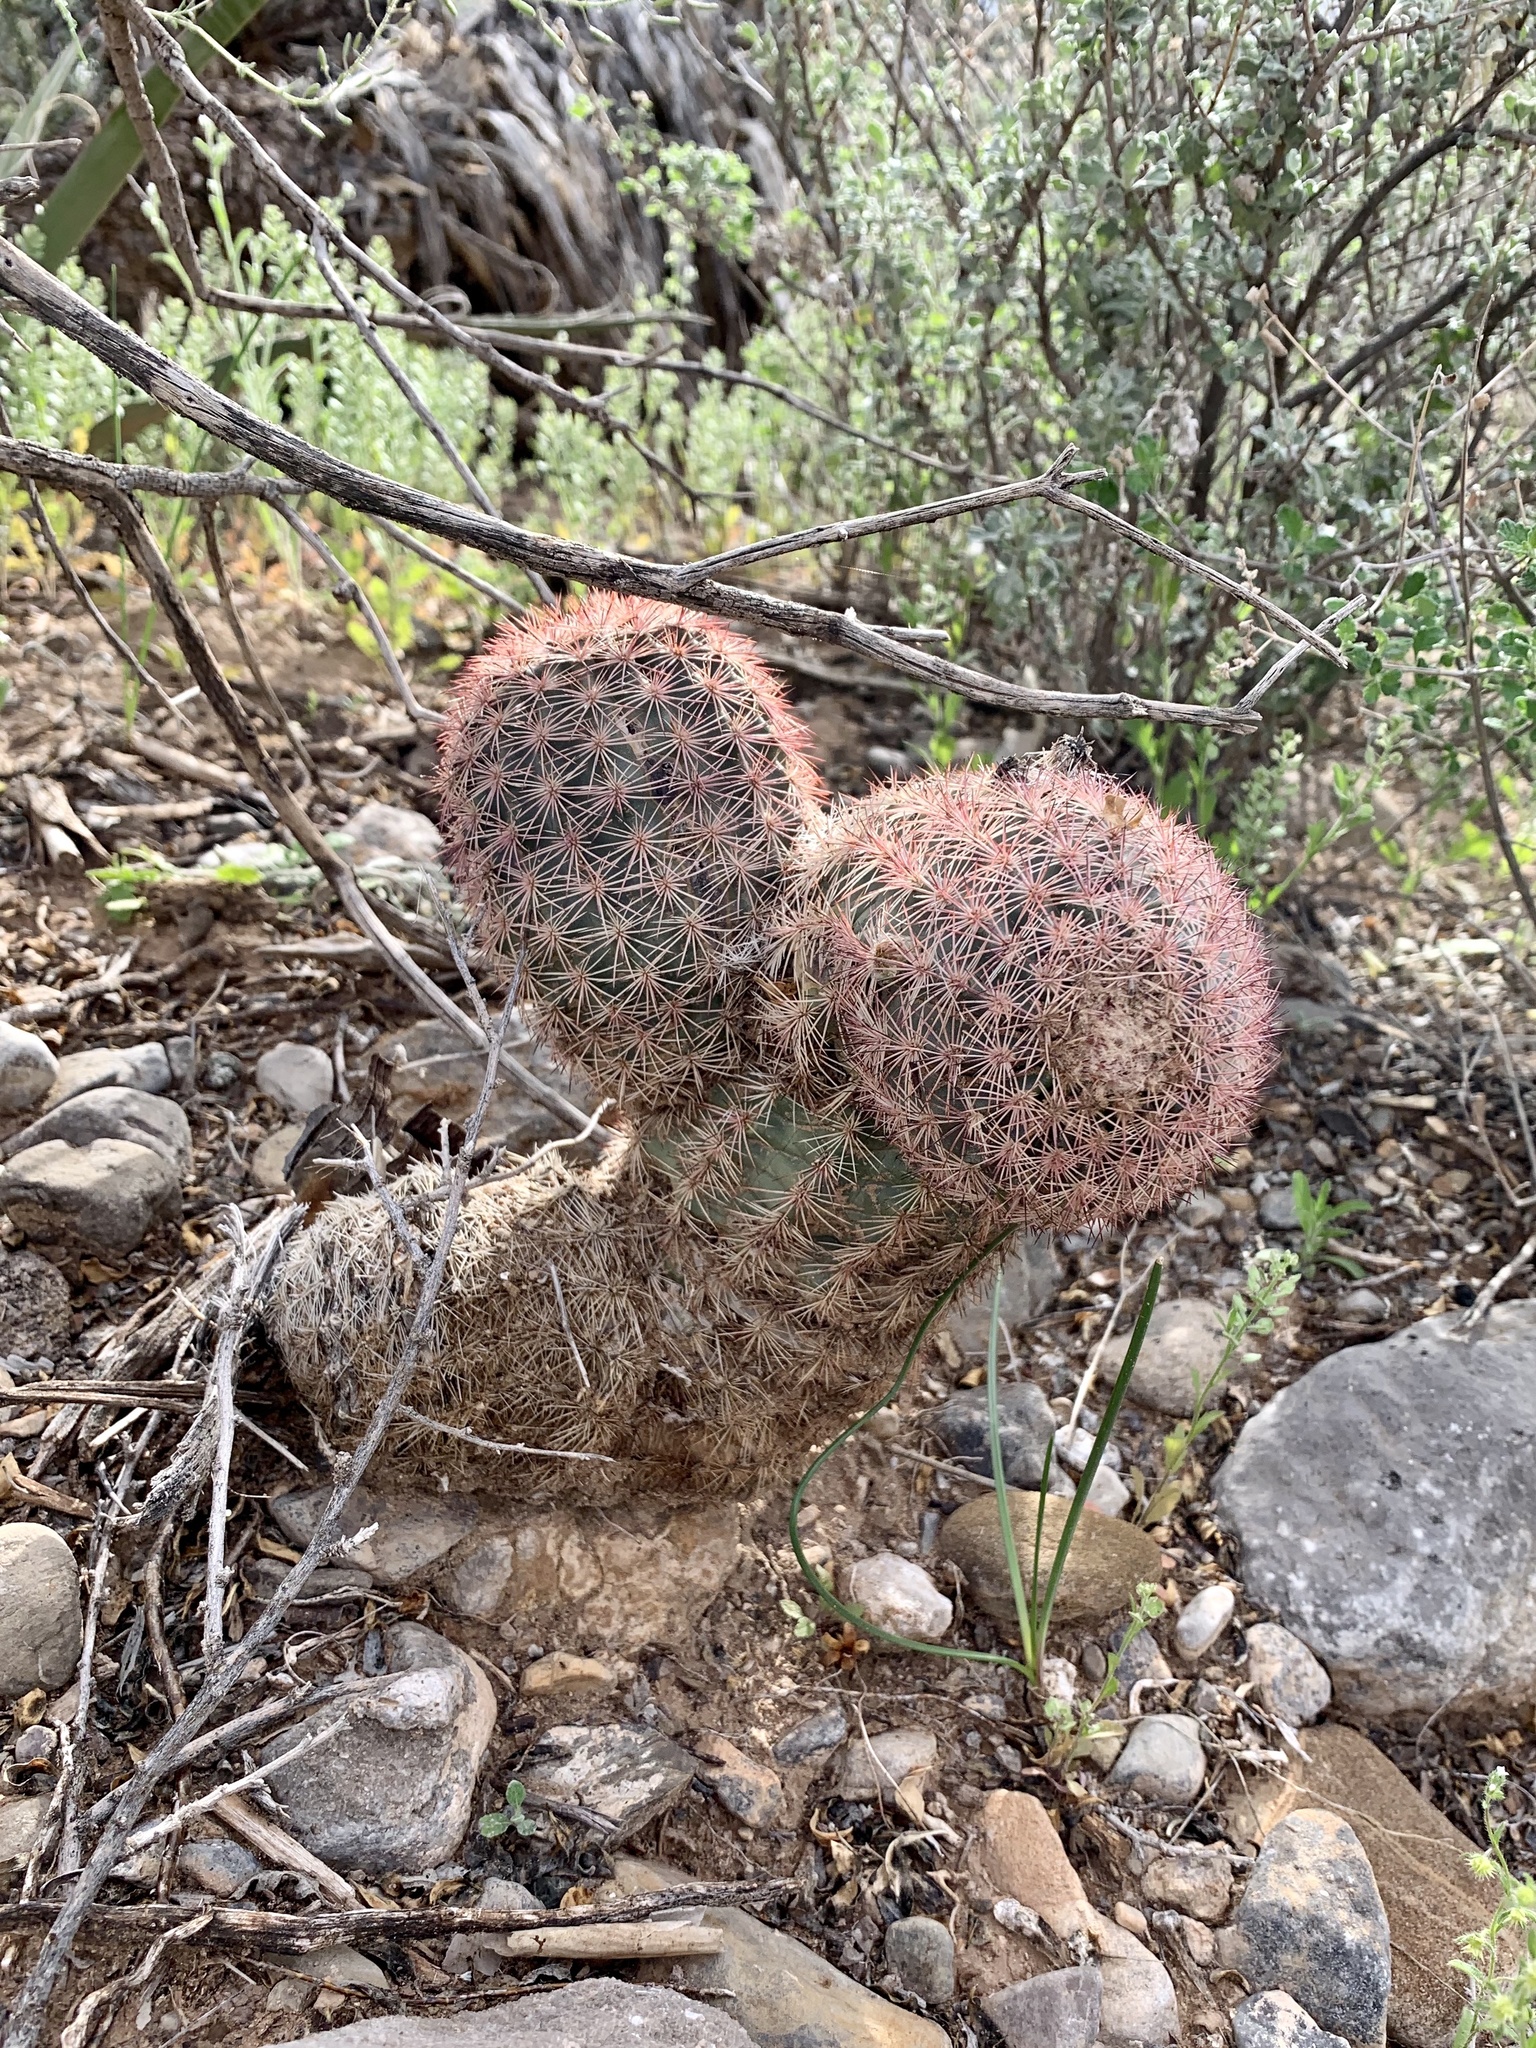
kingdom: Plantae
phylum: Tracheophyta
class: Magnoliopsida
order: Caryophyllales
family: Cactaceae
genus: Echinocereus
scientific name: Echinocereus dasyacanthus
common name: Spiny hedgehog cactus
